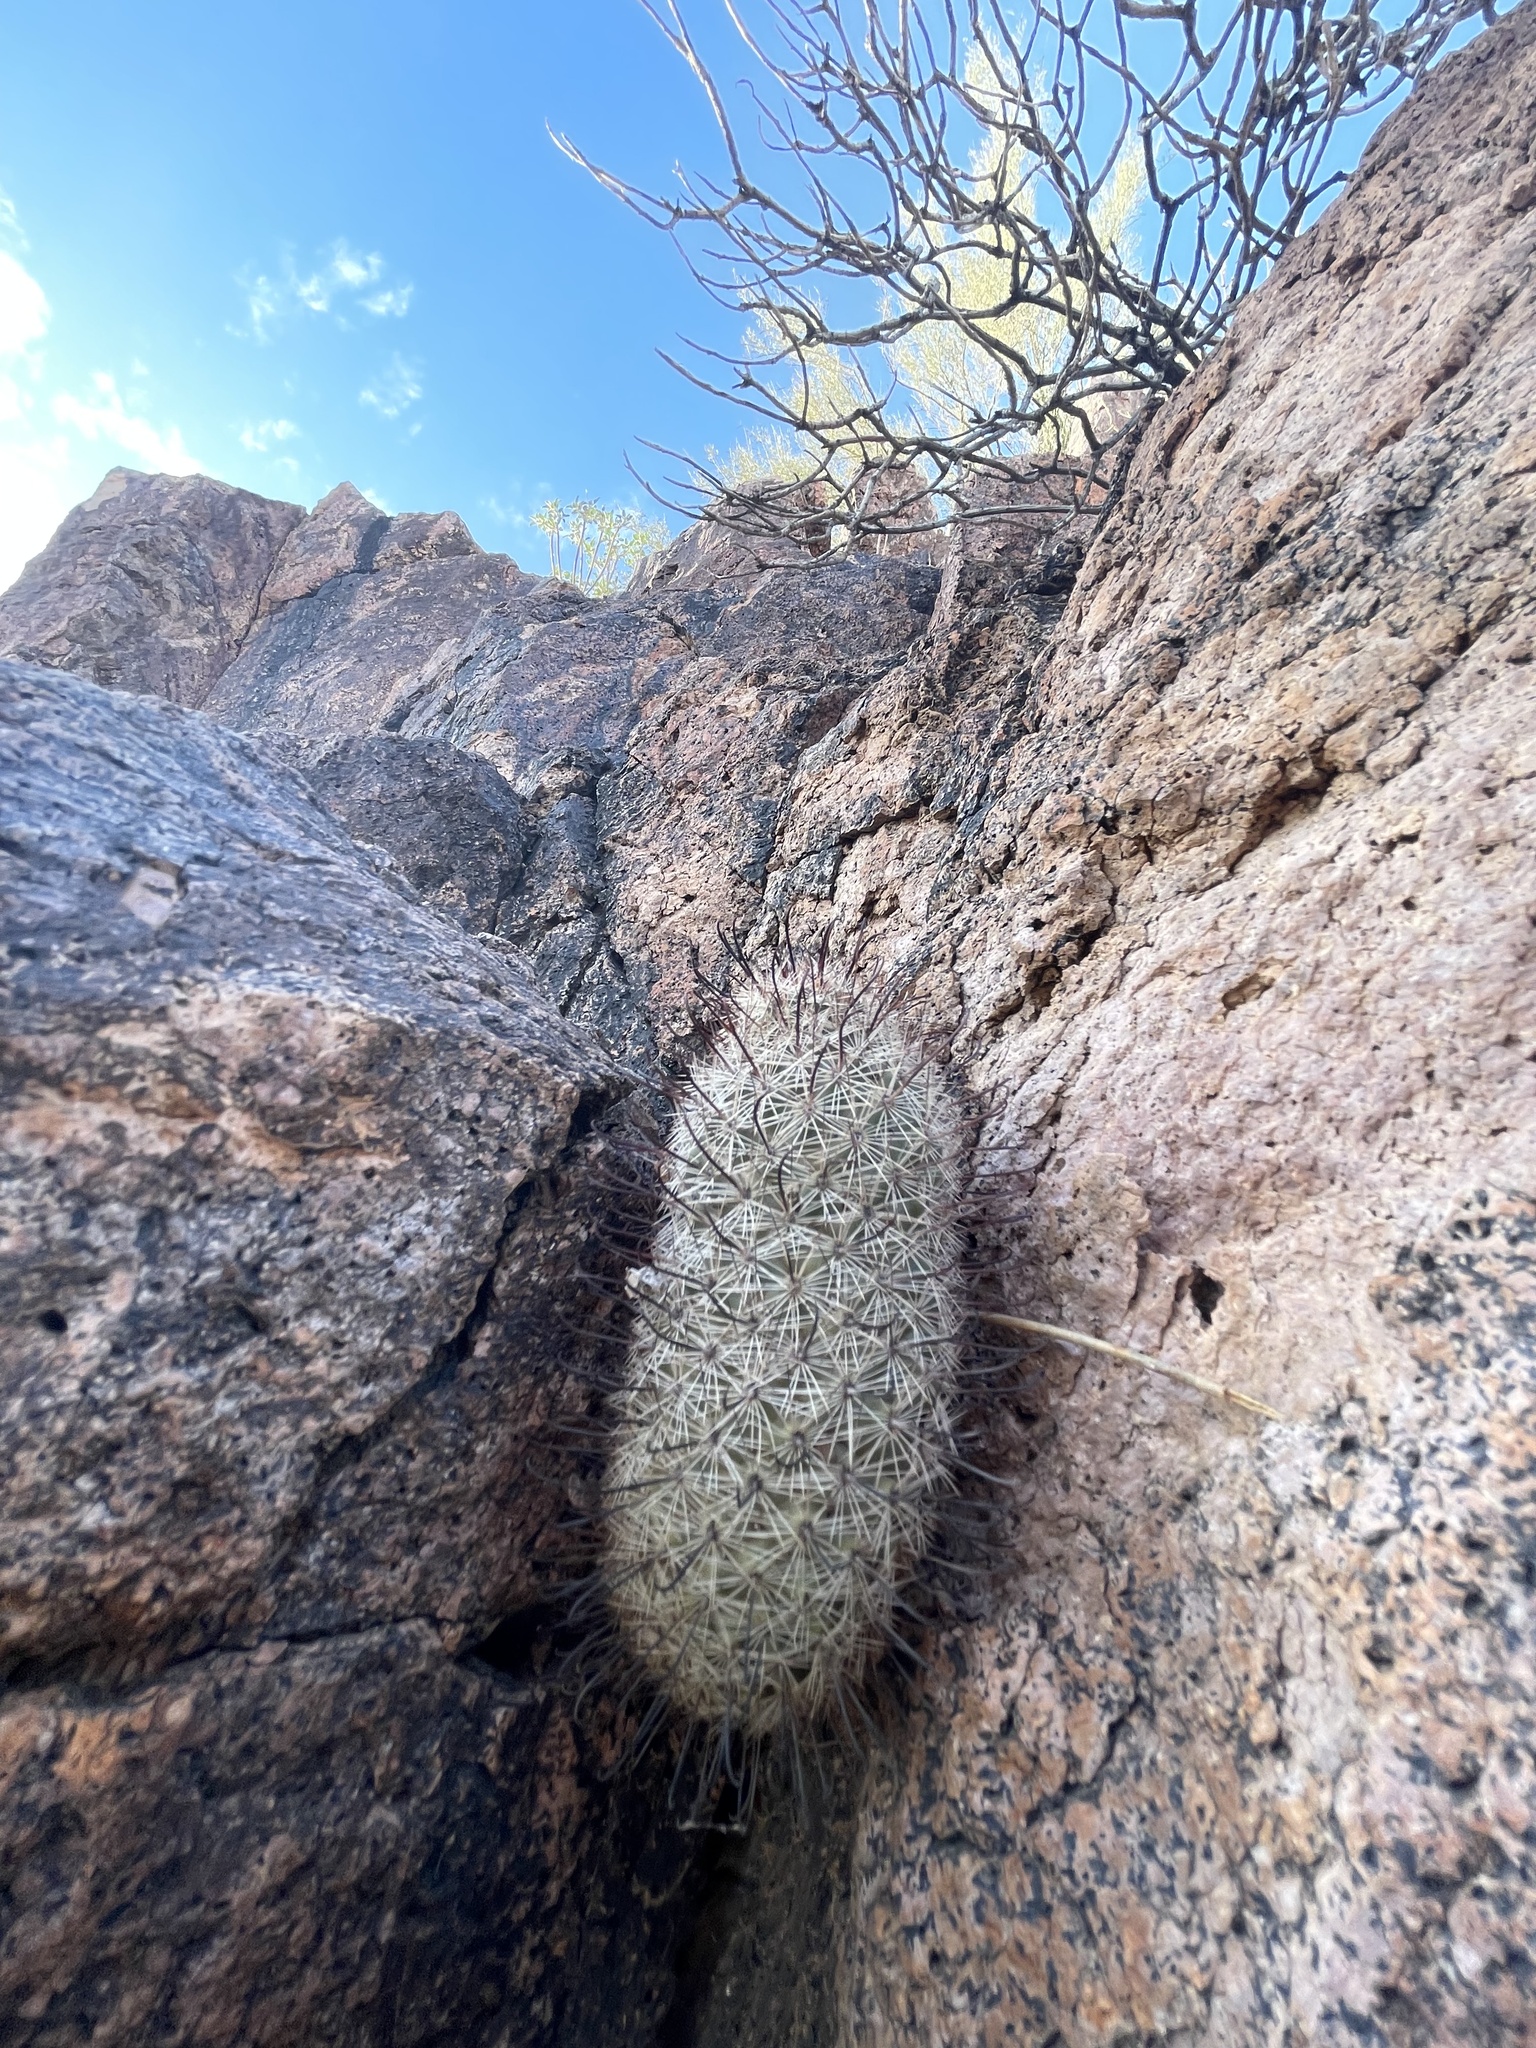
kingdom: Plantae
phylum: Tracheophyta
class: Magnoliopsida
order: Caryophyllales
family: Cactaceae
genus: Cochemiea
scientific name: Cochemiea grahamii
